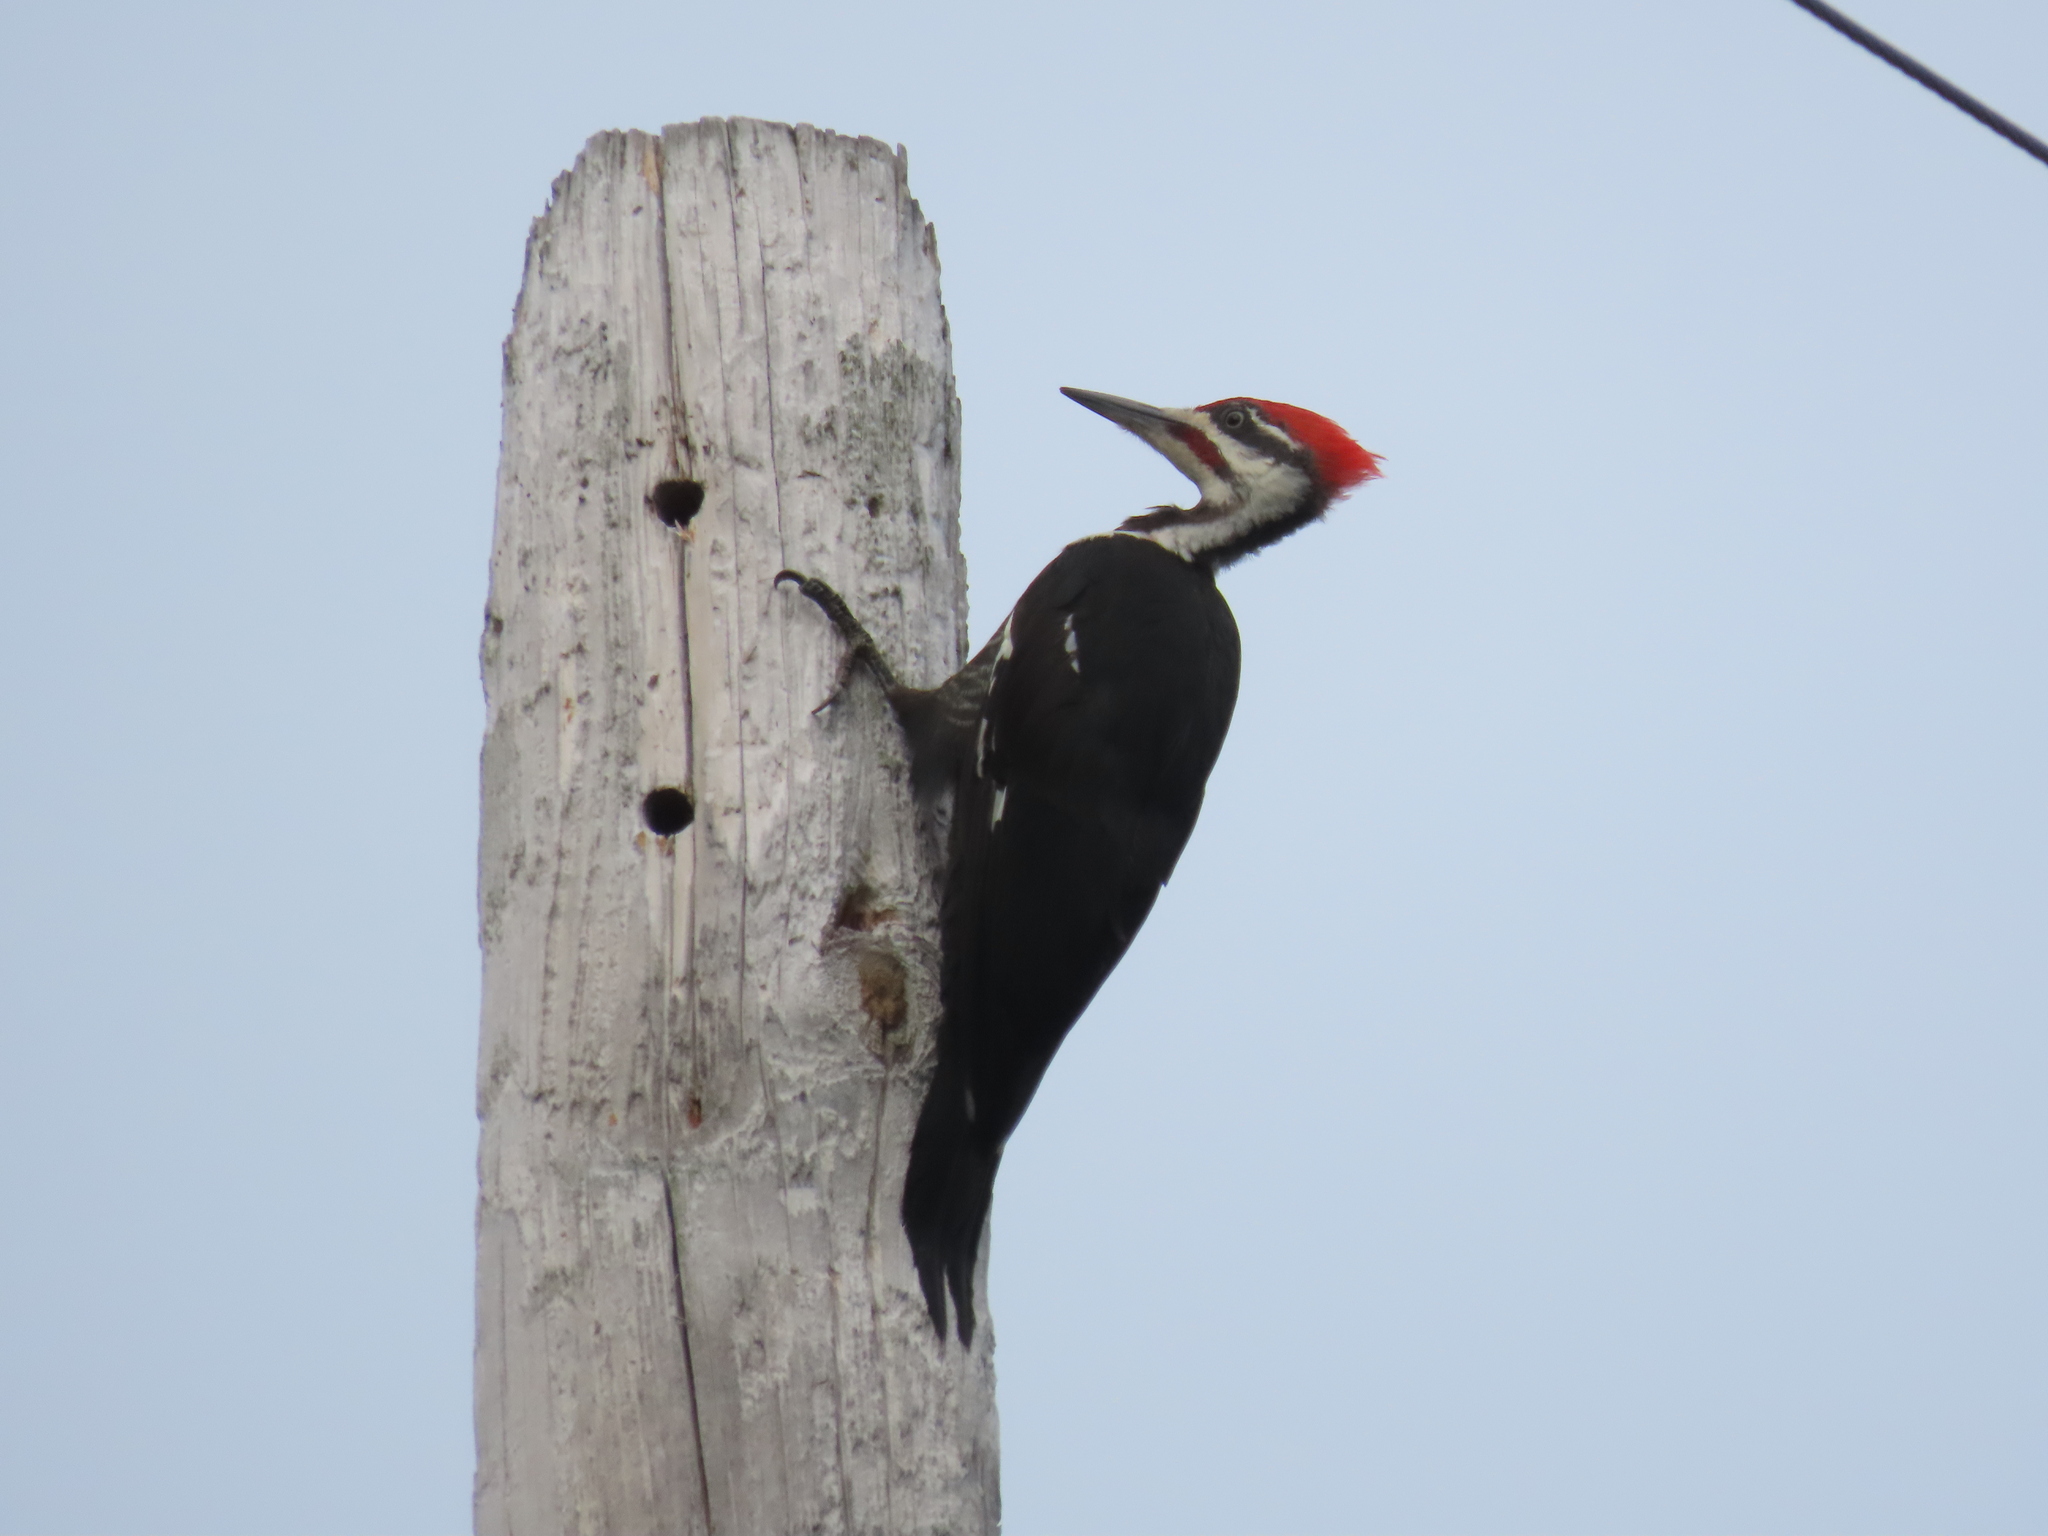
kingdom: Animalia
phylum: Chordata
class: Aves
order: Piciformes
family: Picidae
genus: Dryocopus
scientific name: Dryocopus pileatus
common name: Pileated woodpecker
